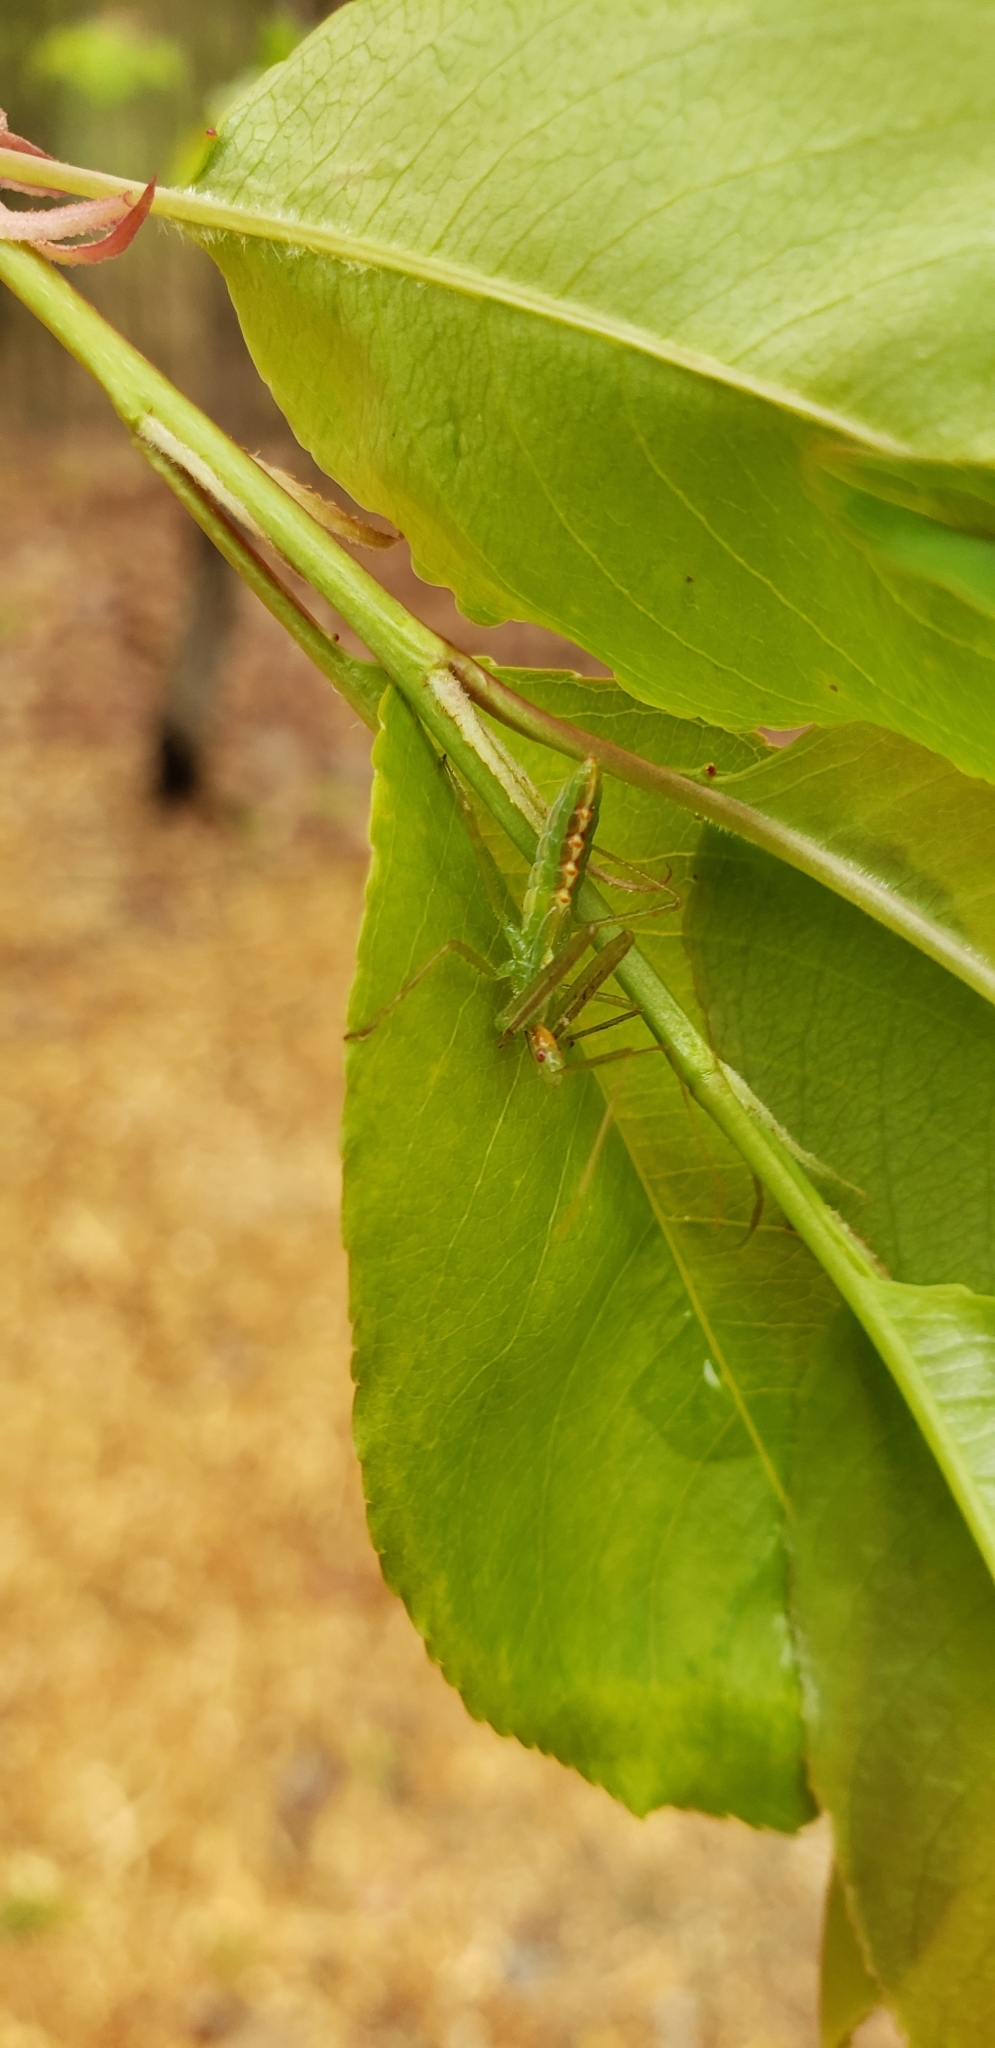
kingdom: Animalia
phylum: Arthropoda
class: Insecta
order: Hemiptera
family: Reduviidae
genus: Zelus
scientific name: Zelus luridus
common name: Pale green assassin bug
